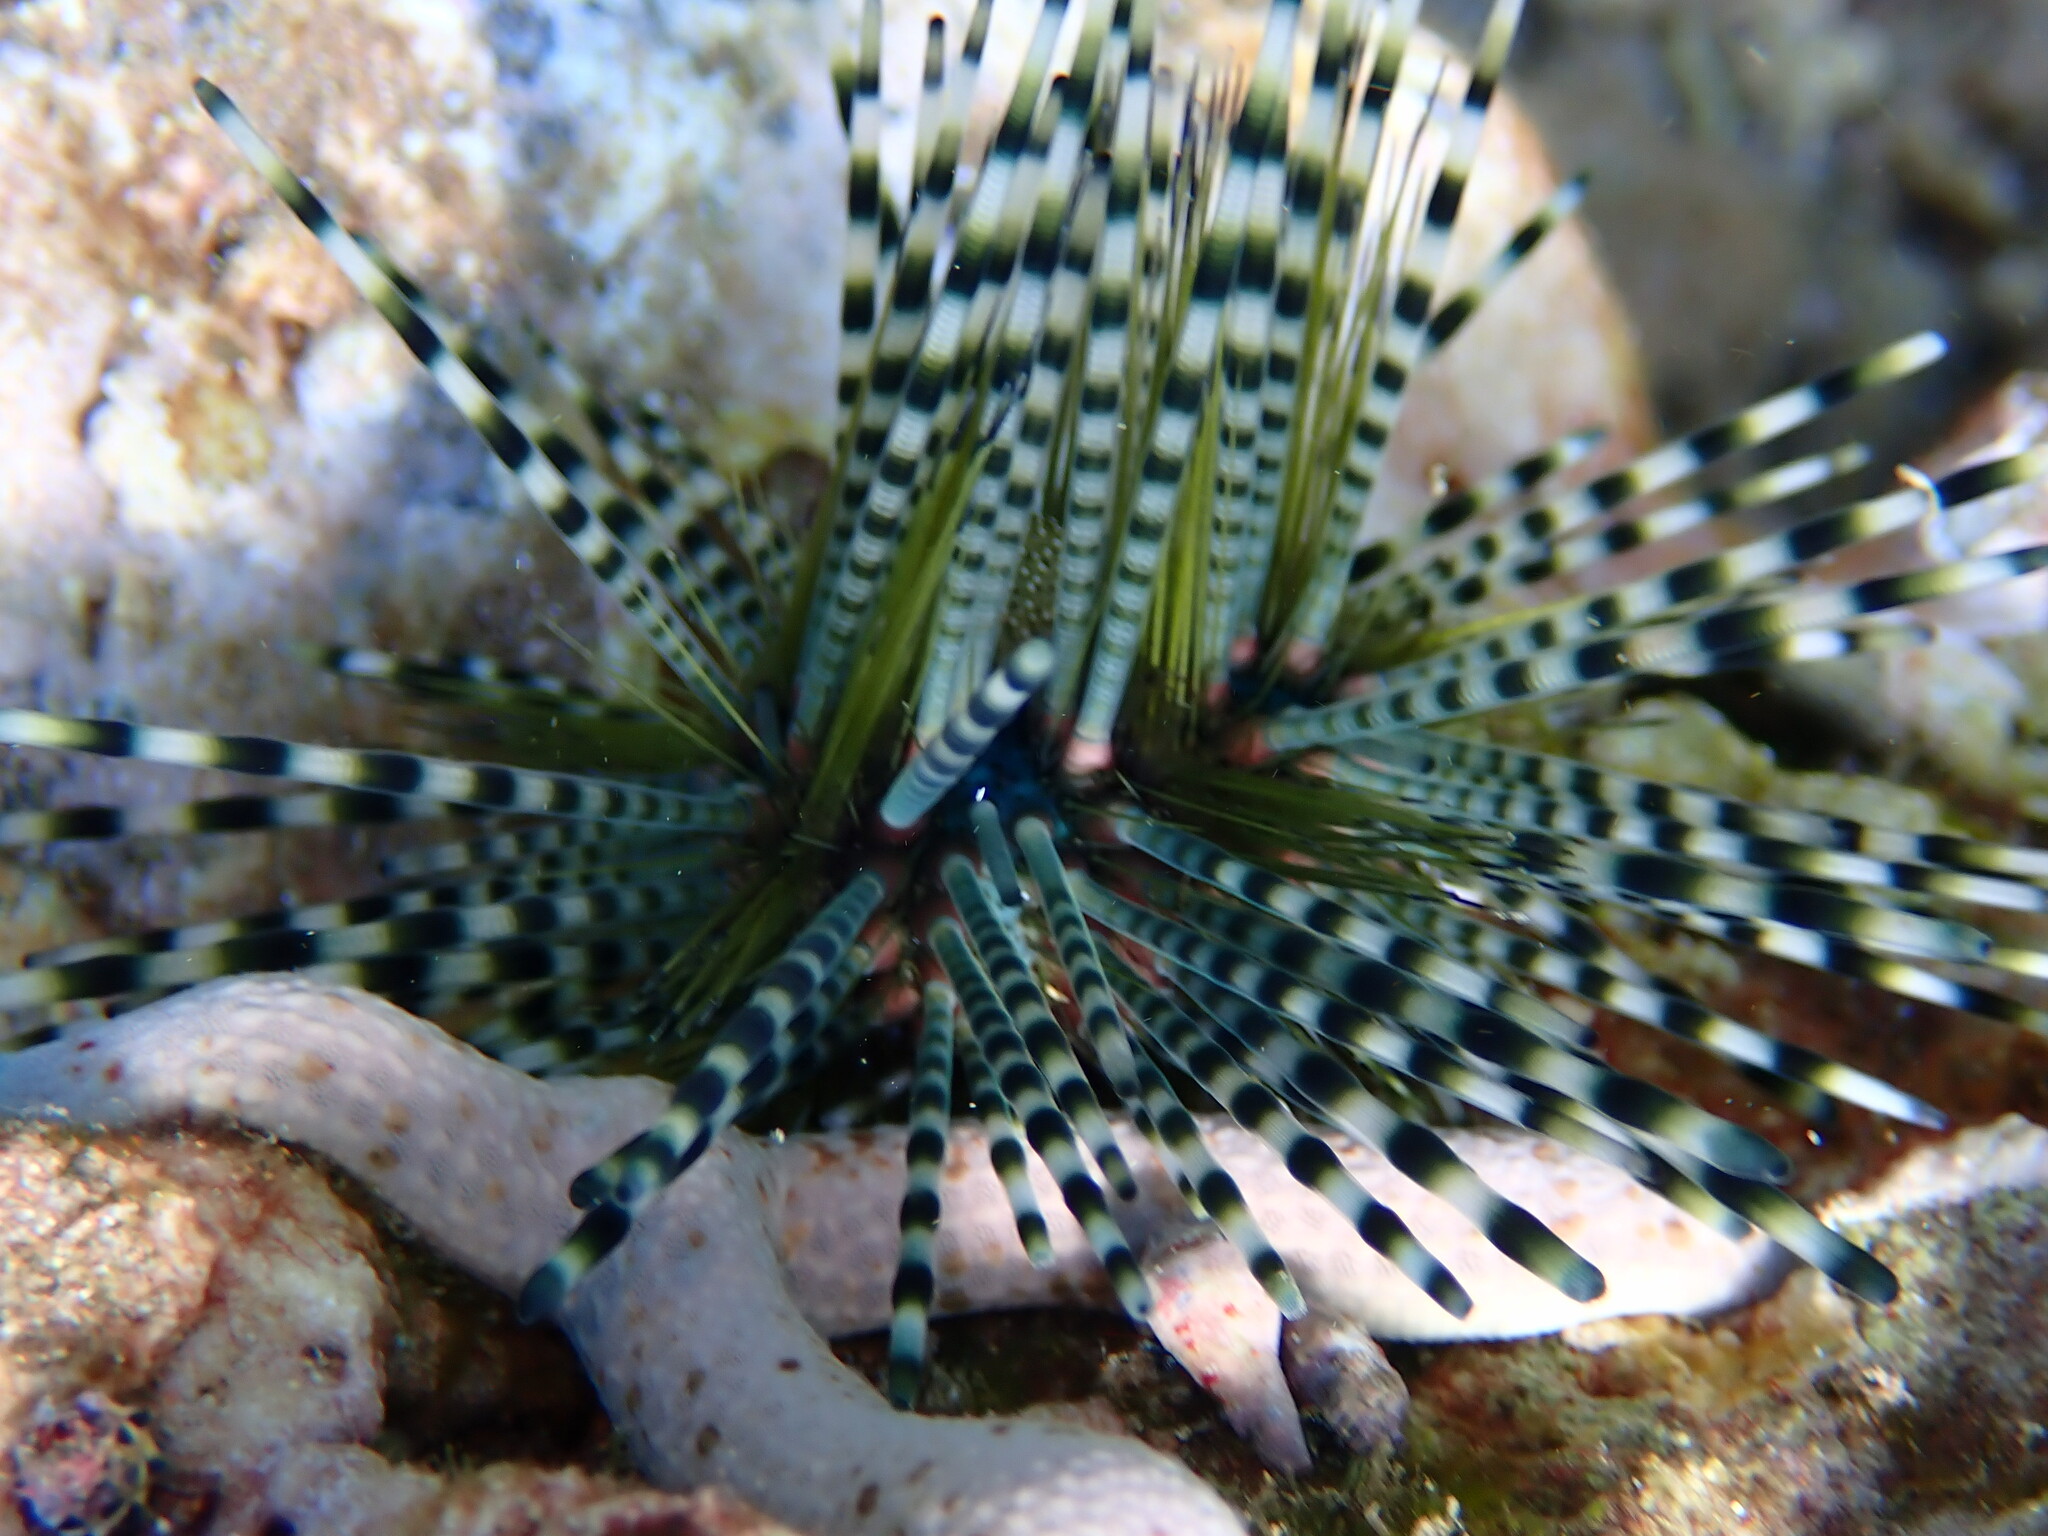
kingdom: Animalia
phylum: Echinodermata
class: Echinoidea
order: Diadematoida
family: Diadematidae
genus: Echinothrix
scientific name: Echinothrix calamaris
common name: Banded sea urchin
